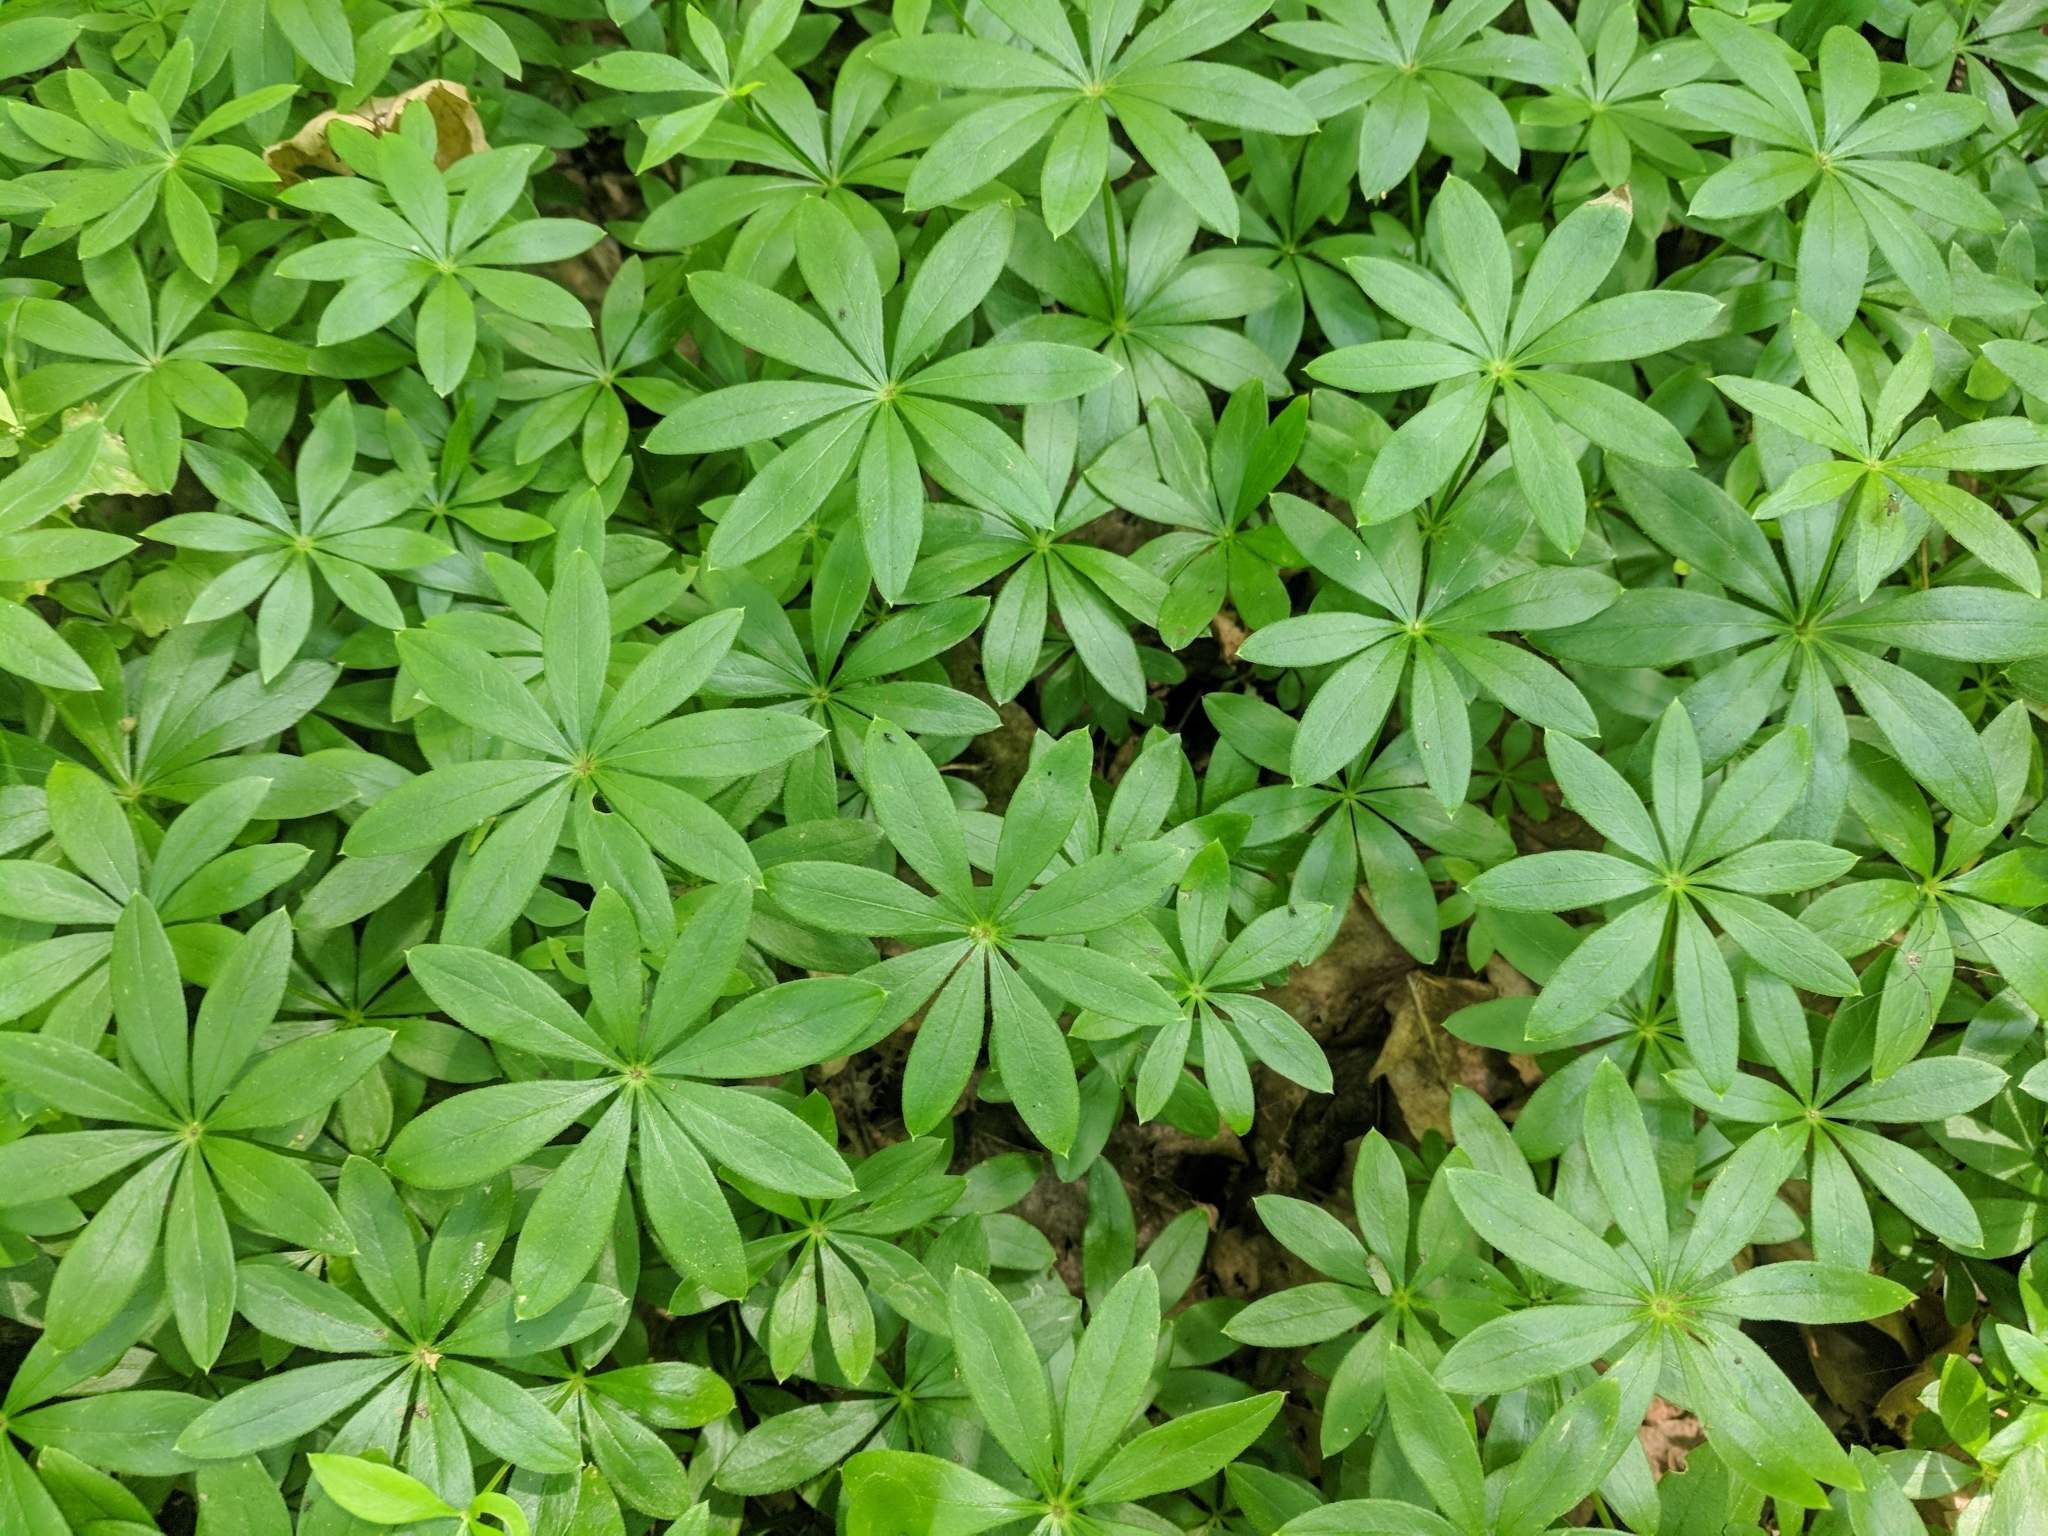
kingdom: Plantae
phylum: Tracheophyta
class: Magnoliopsida
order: Gentianales
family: Rubiaceae
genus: Galium
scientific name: Galium odoratum
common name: Sweet woodruff
